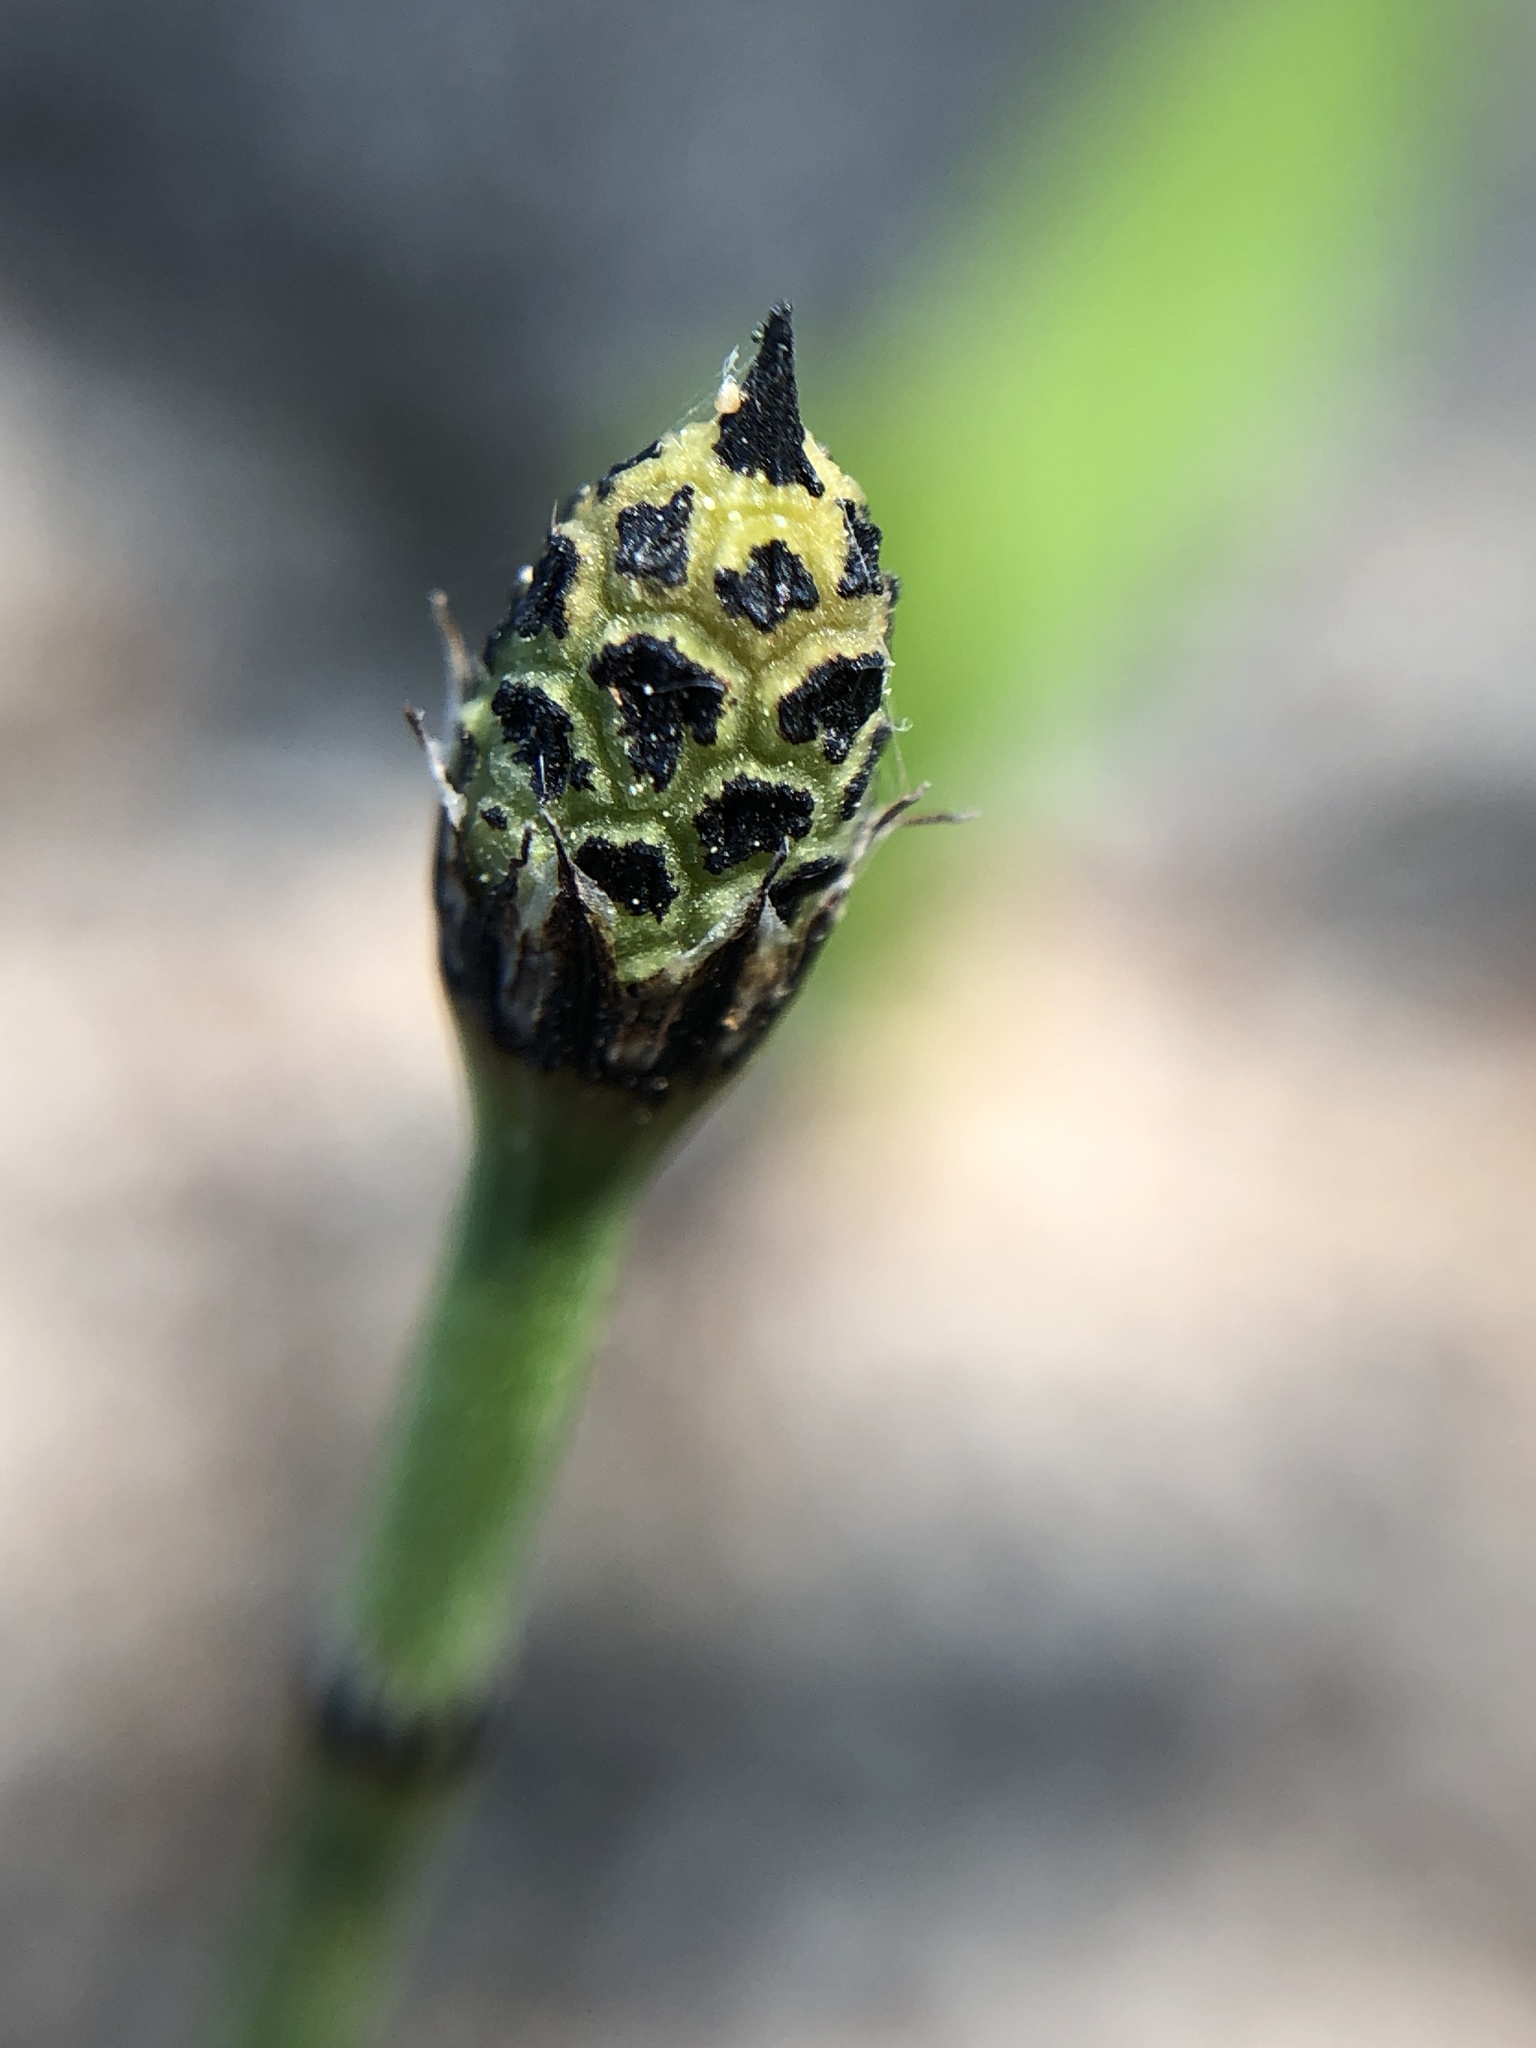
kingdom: Plantae
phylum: Tracheophyta
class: Polypodiopsida
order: Equisetales
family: Equisetaceae
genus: Equisetum
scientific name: Equisetum hyemale
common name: Rough horsetail
